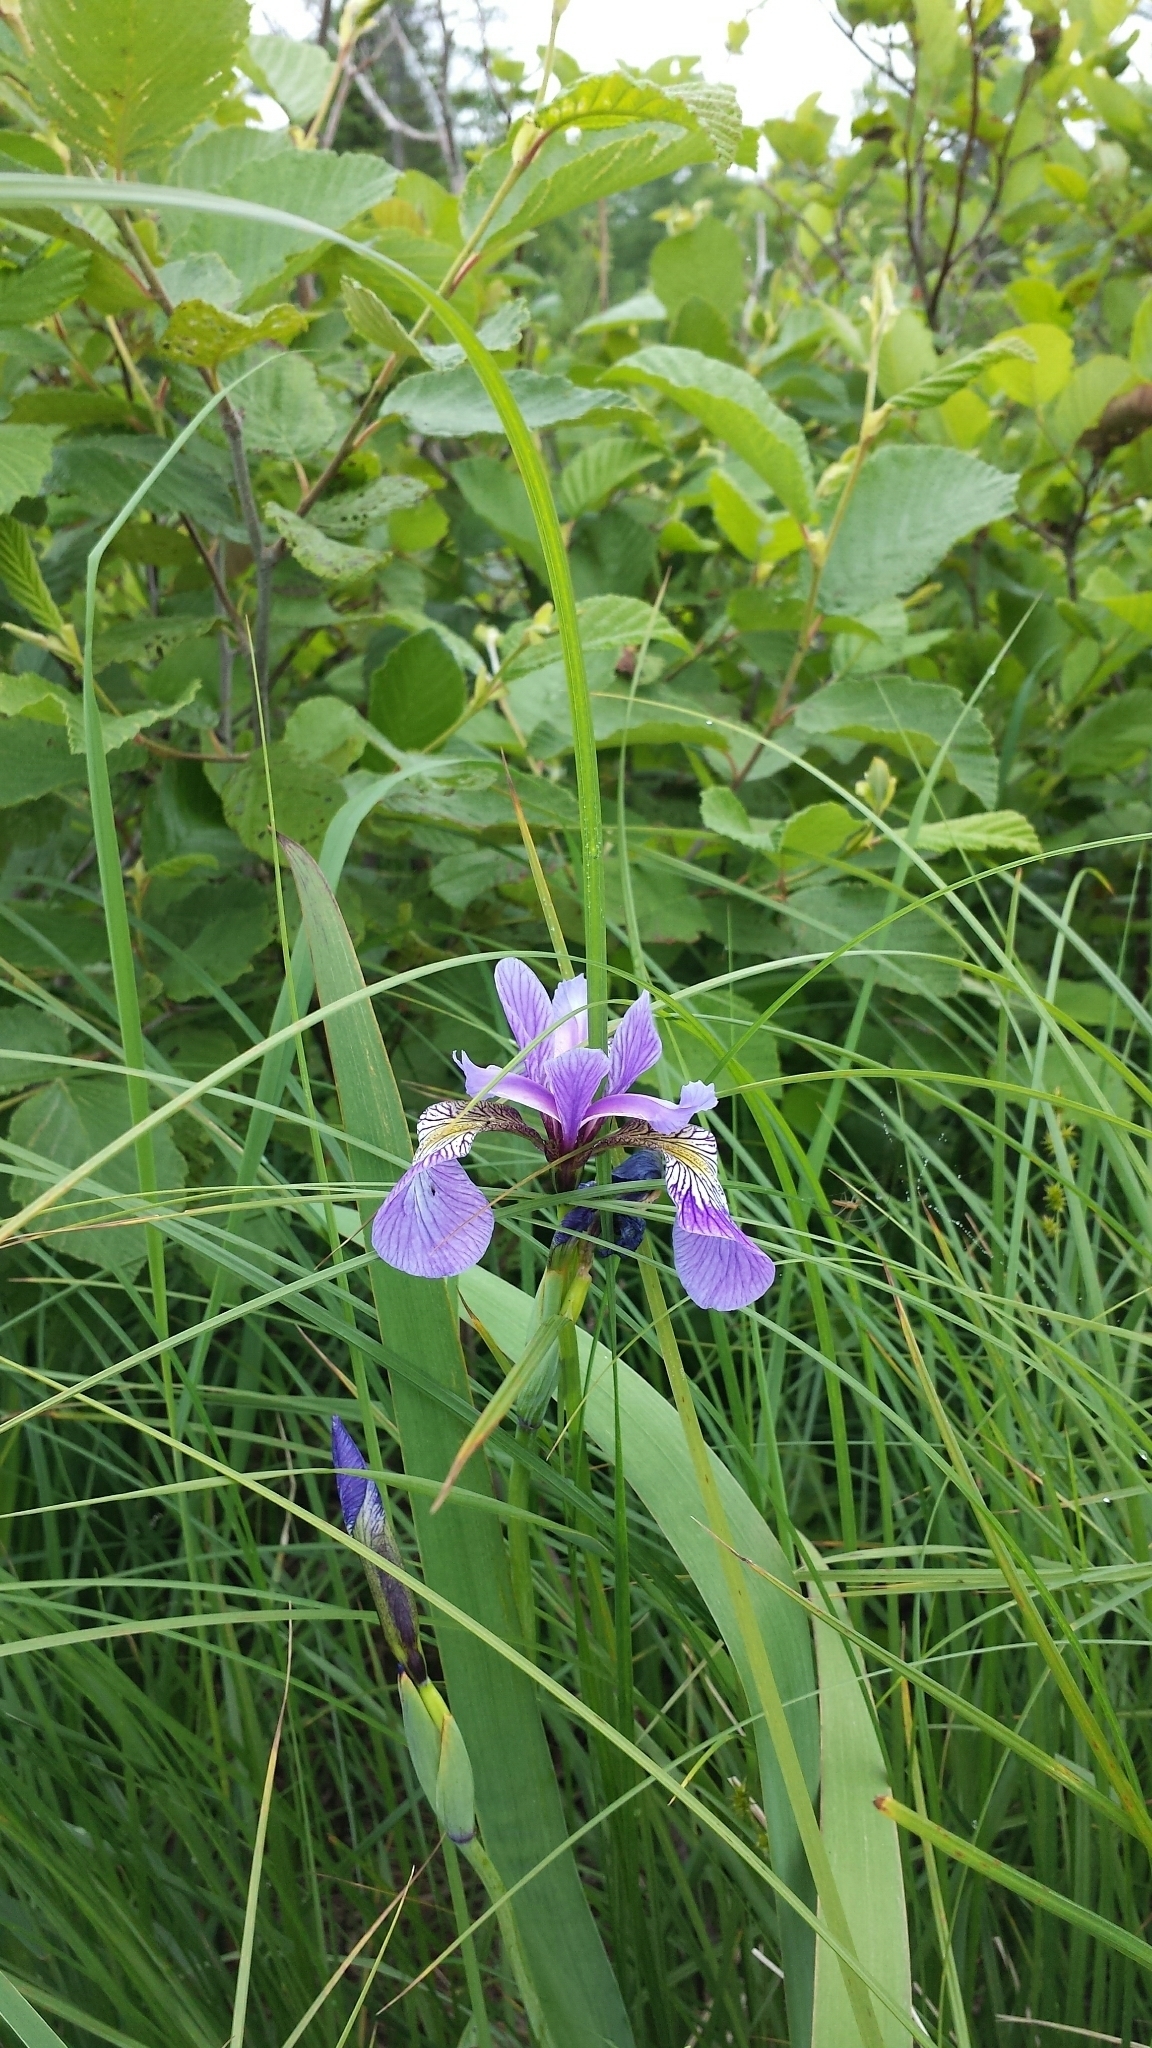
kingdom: Plantae
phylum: Tracheophyta
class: Liliopsida
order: Asparagales
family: Iridaceae
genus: Iris
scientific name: Iris versicolor
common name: Purple iris
